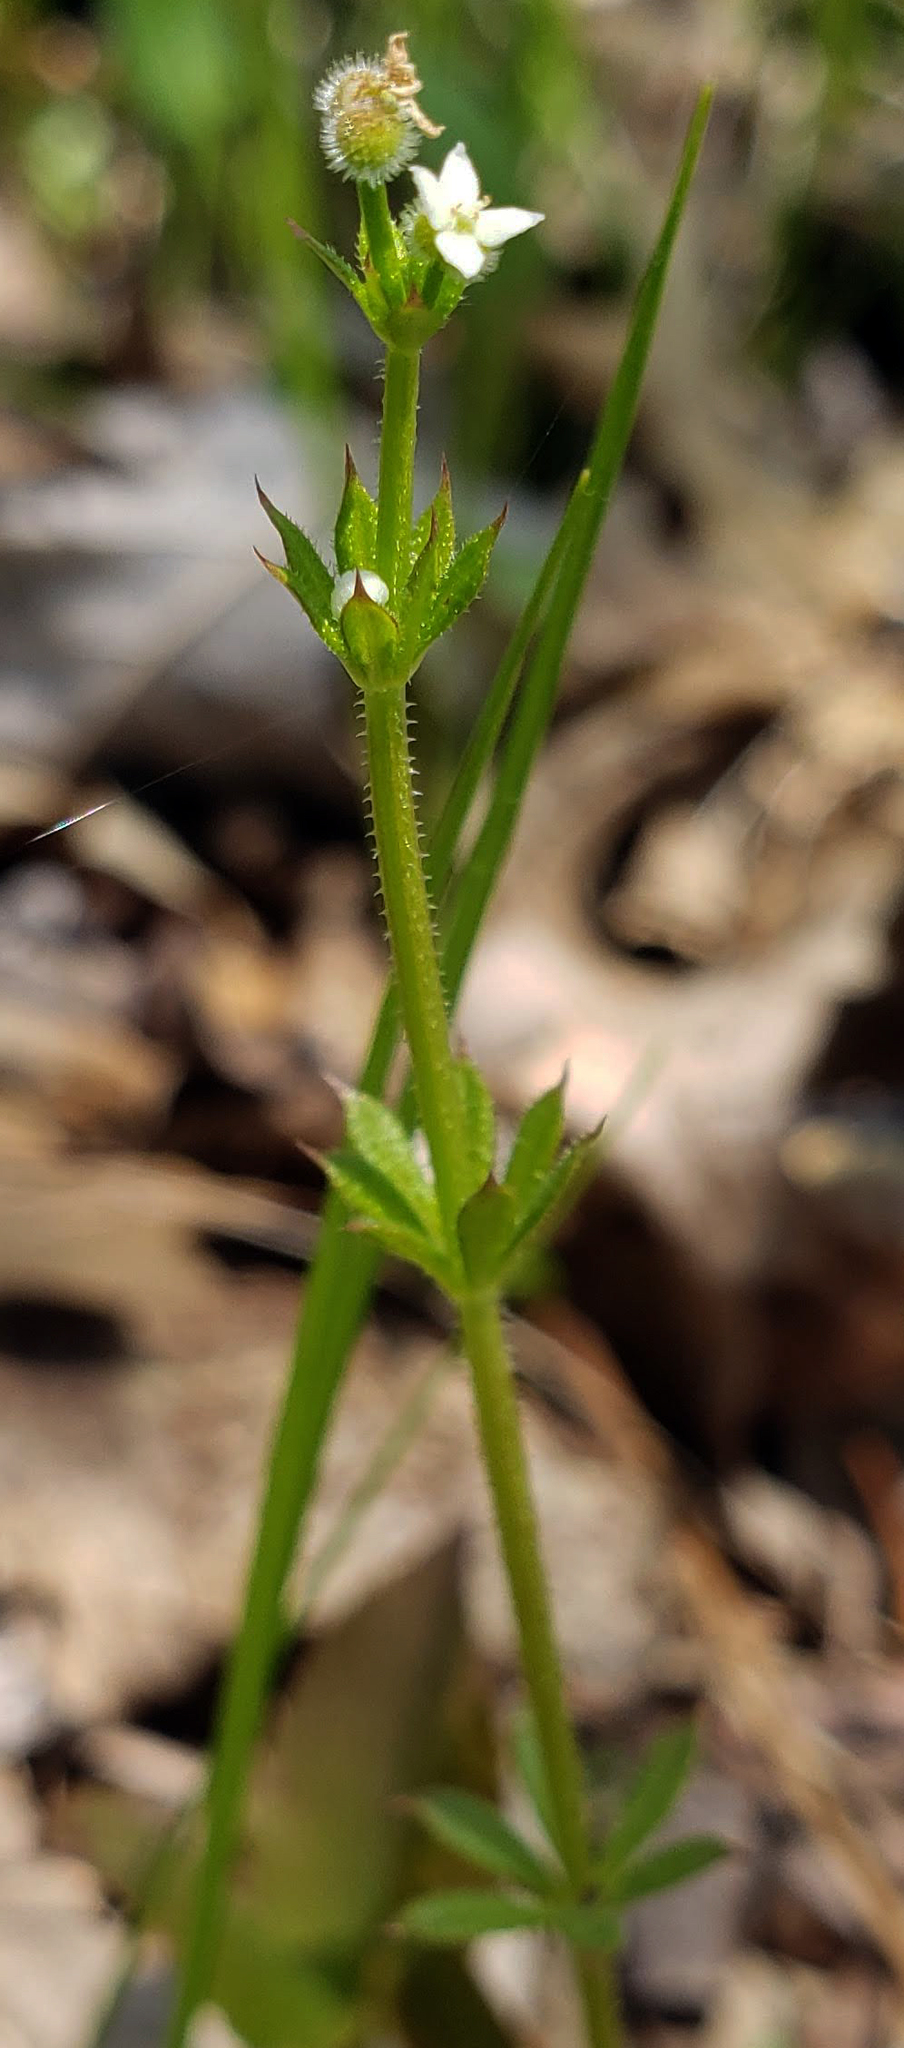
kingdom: Plantae
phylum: Tracheophyta
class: Magnoliopsida
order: Gentianales
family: Rubiaceae
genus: Galium
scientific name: Galium aparine
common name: Cleavers
